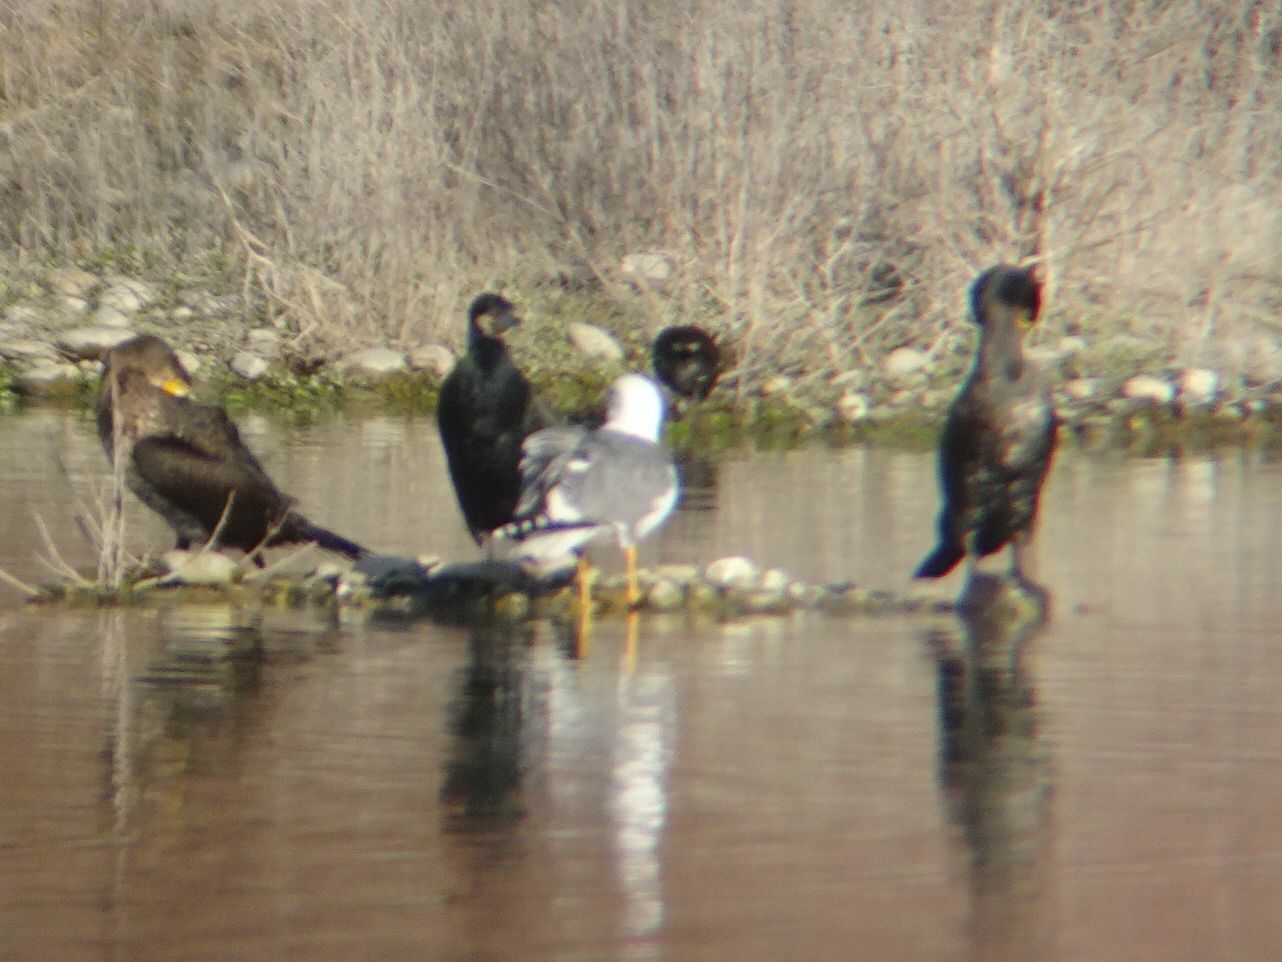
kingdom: Animalia
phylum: Chordata
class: Aves
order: Charadriiformes
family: Laridae
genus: Larus
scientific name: Larus michahellis
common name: Yellow-legged gull
